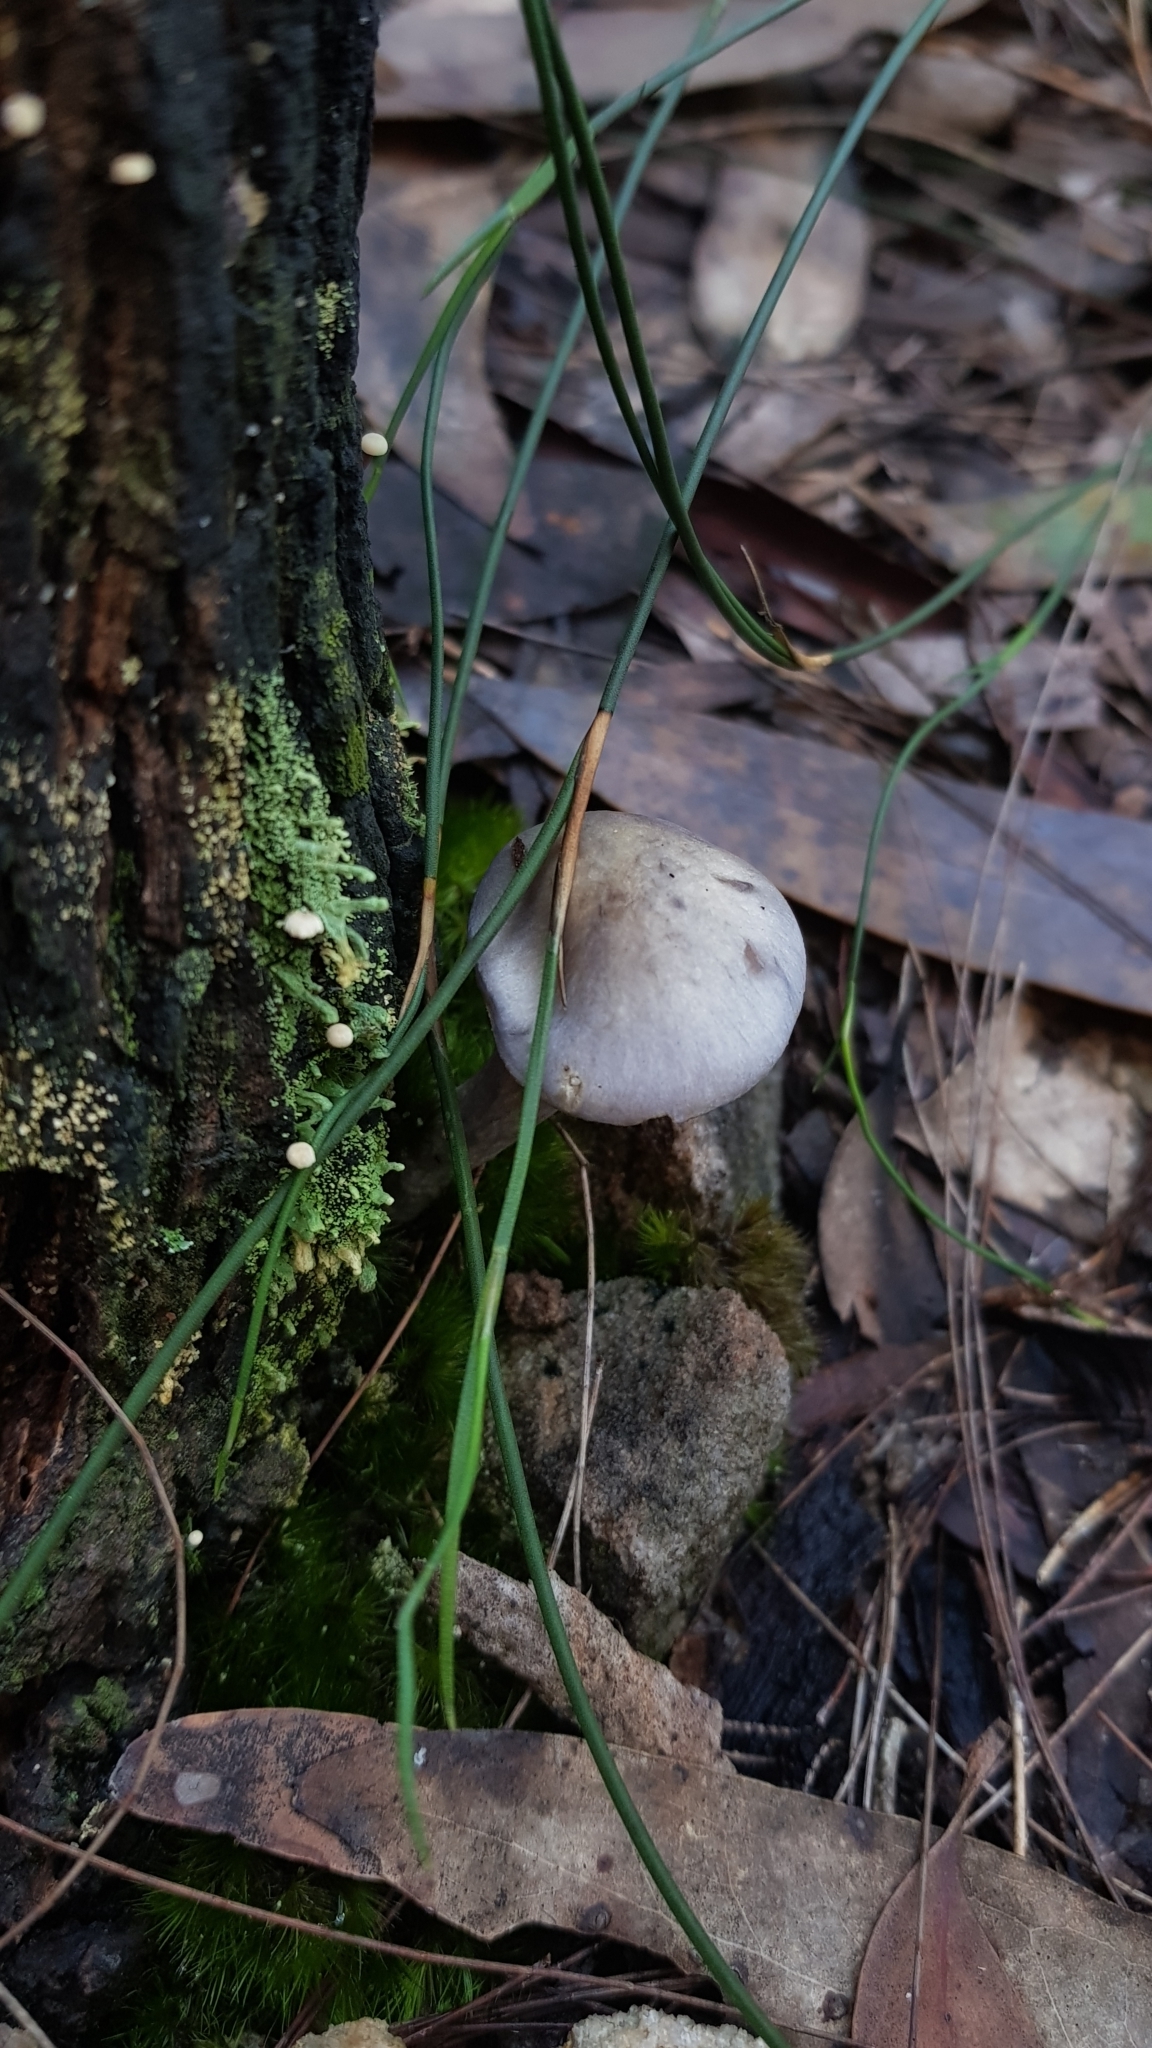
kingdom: Fungi
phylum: Basidiomycota
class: Agaricomycetes
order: Agaricales
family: Cortinariaceae
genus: Cortinarius
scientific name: Cortinarius rotundisporus
